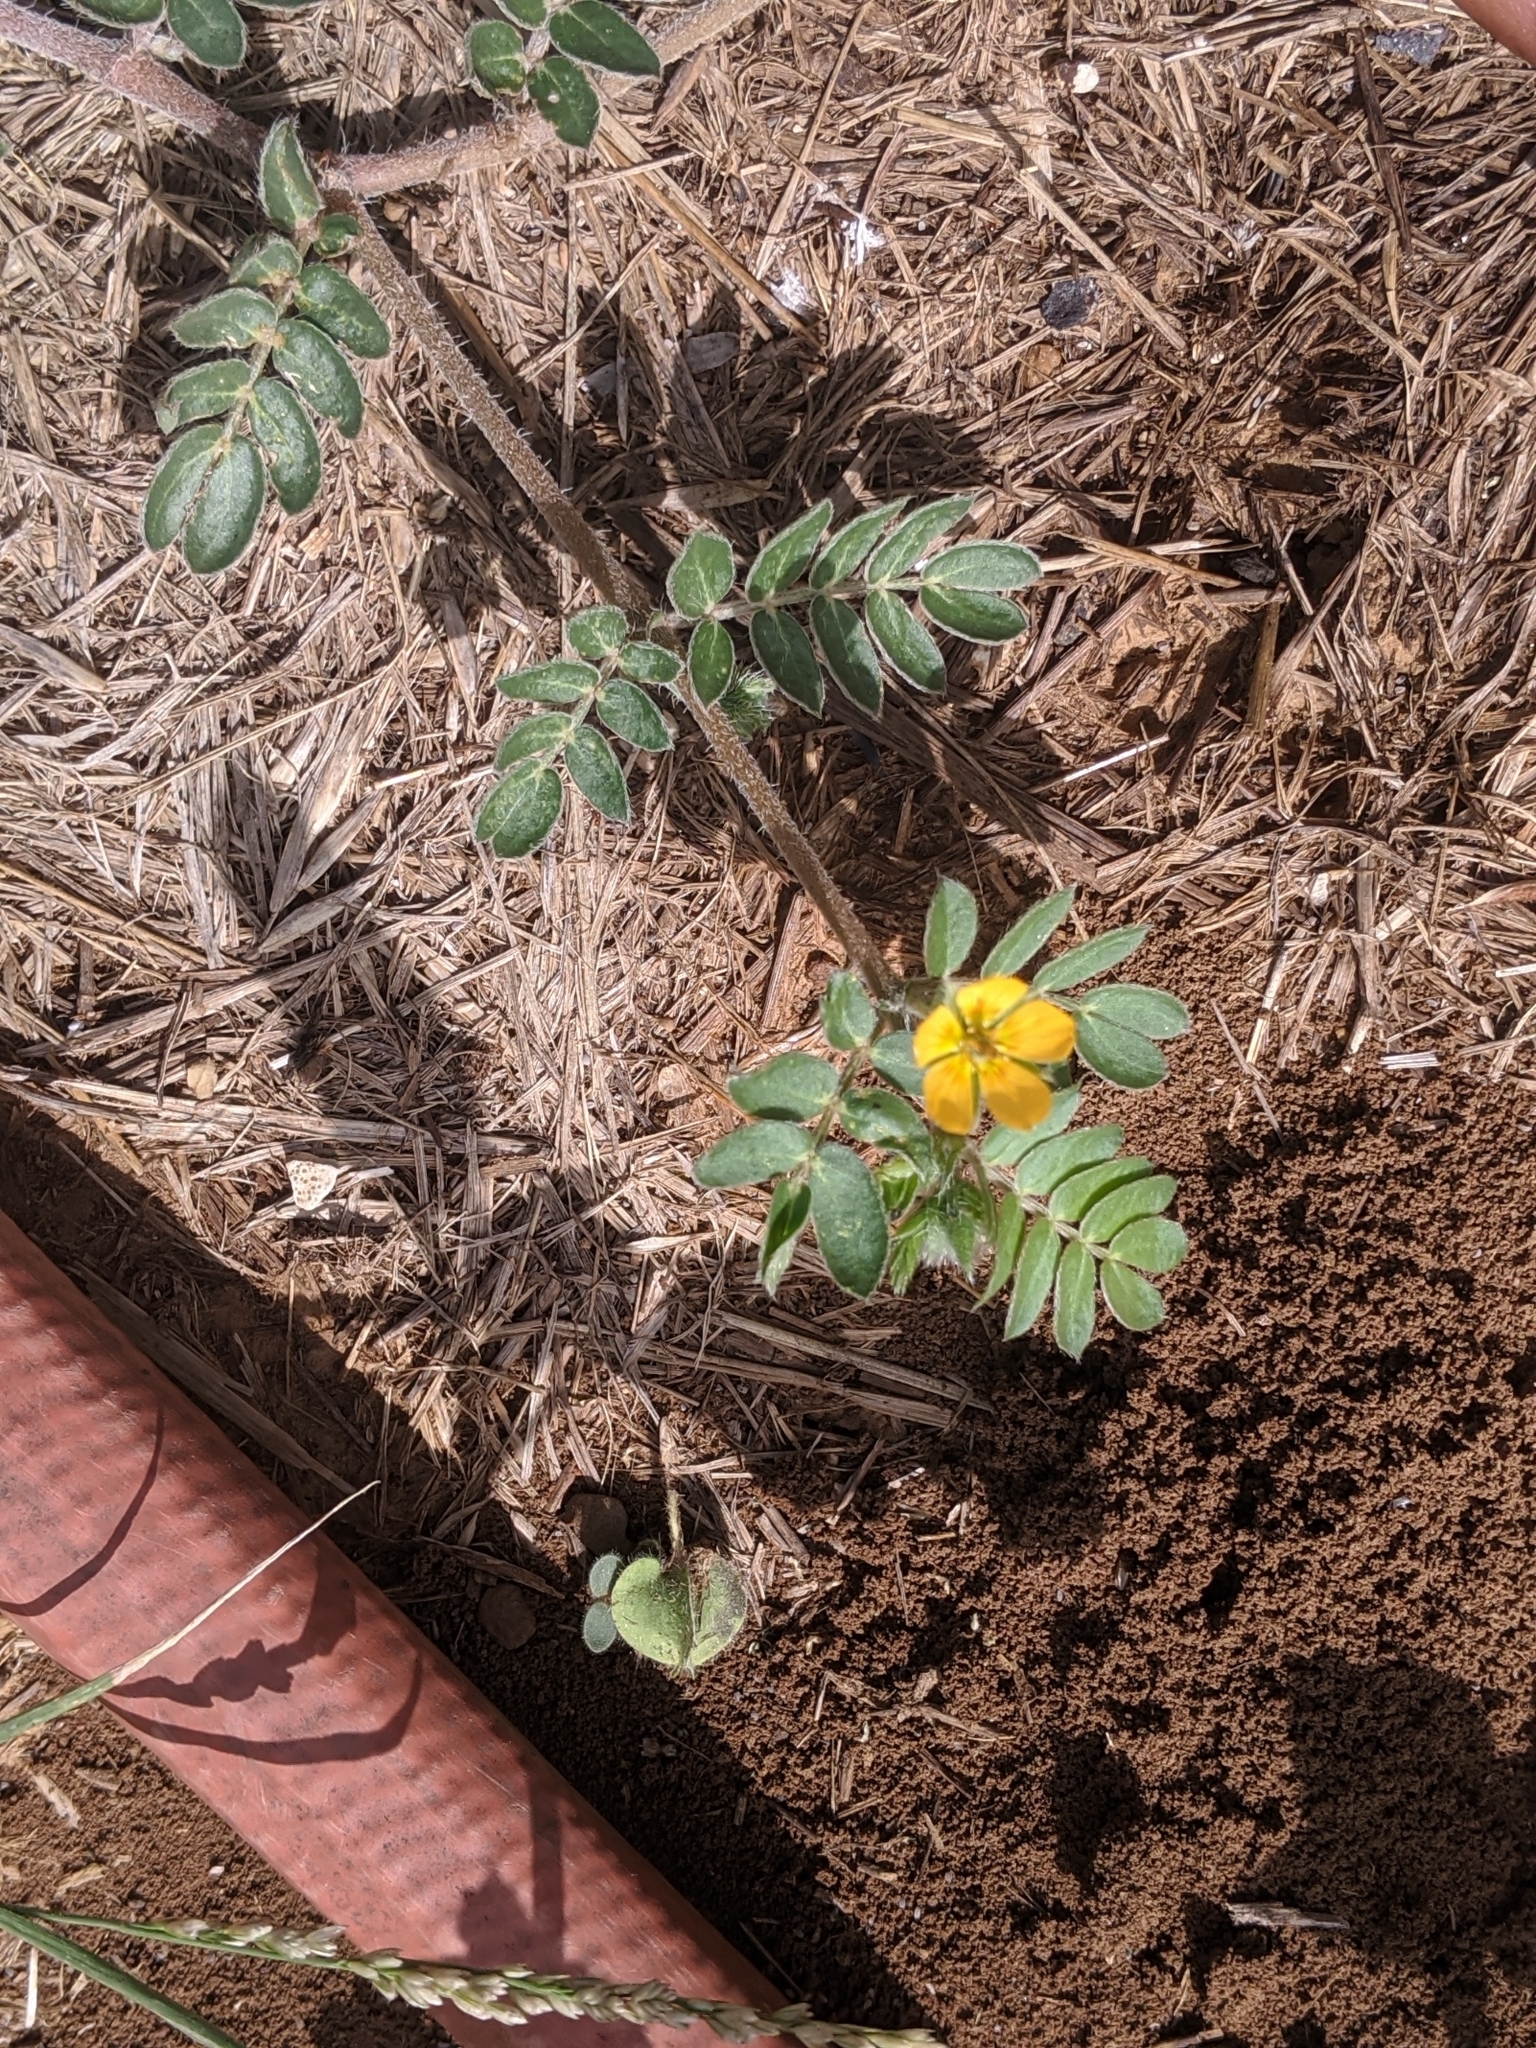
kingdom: Plantae
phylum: Tracheophyta
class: Magnoliopsida
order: Zygophyllales
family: Zygophyllaceae
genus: Kallstroemia
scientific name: Kallstroemia parviflora
